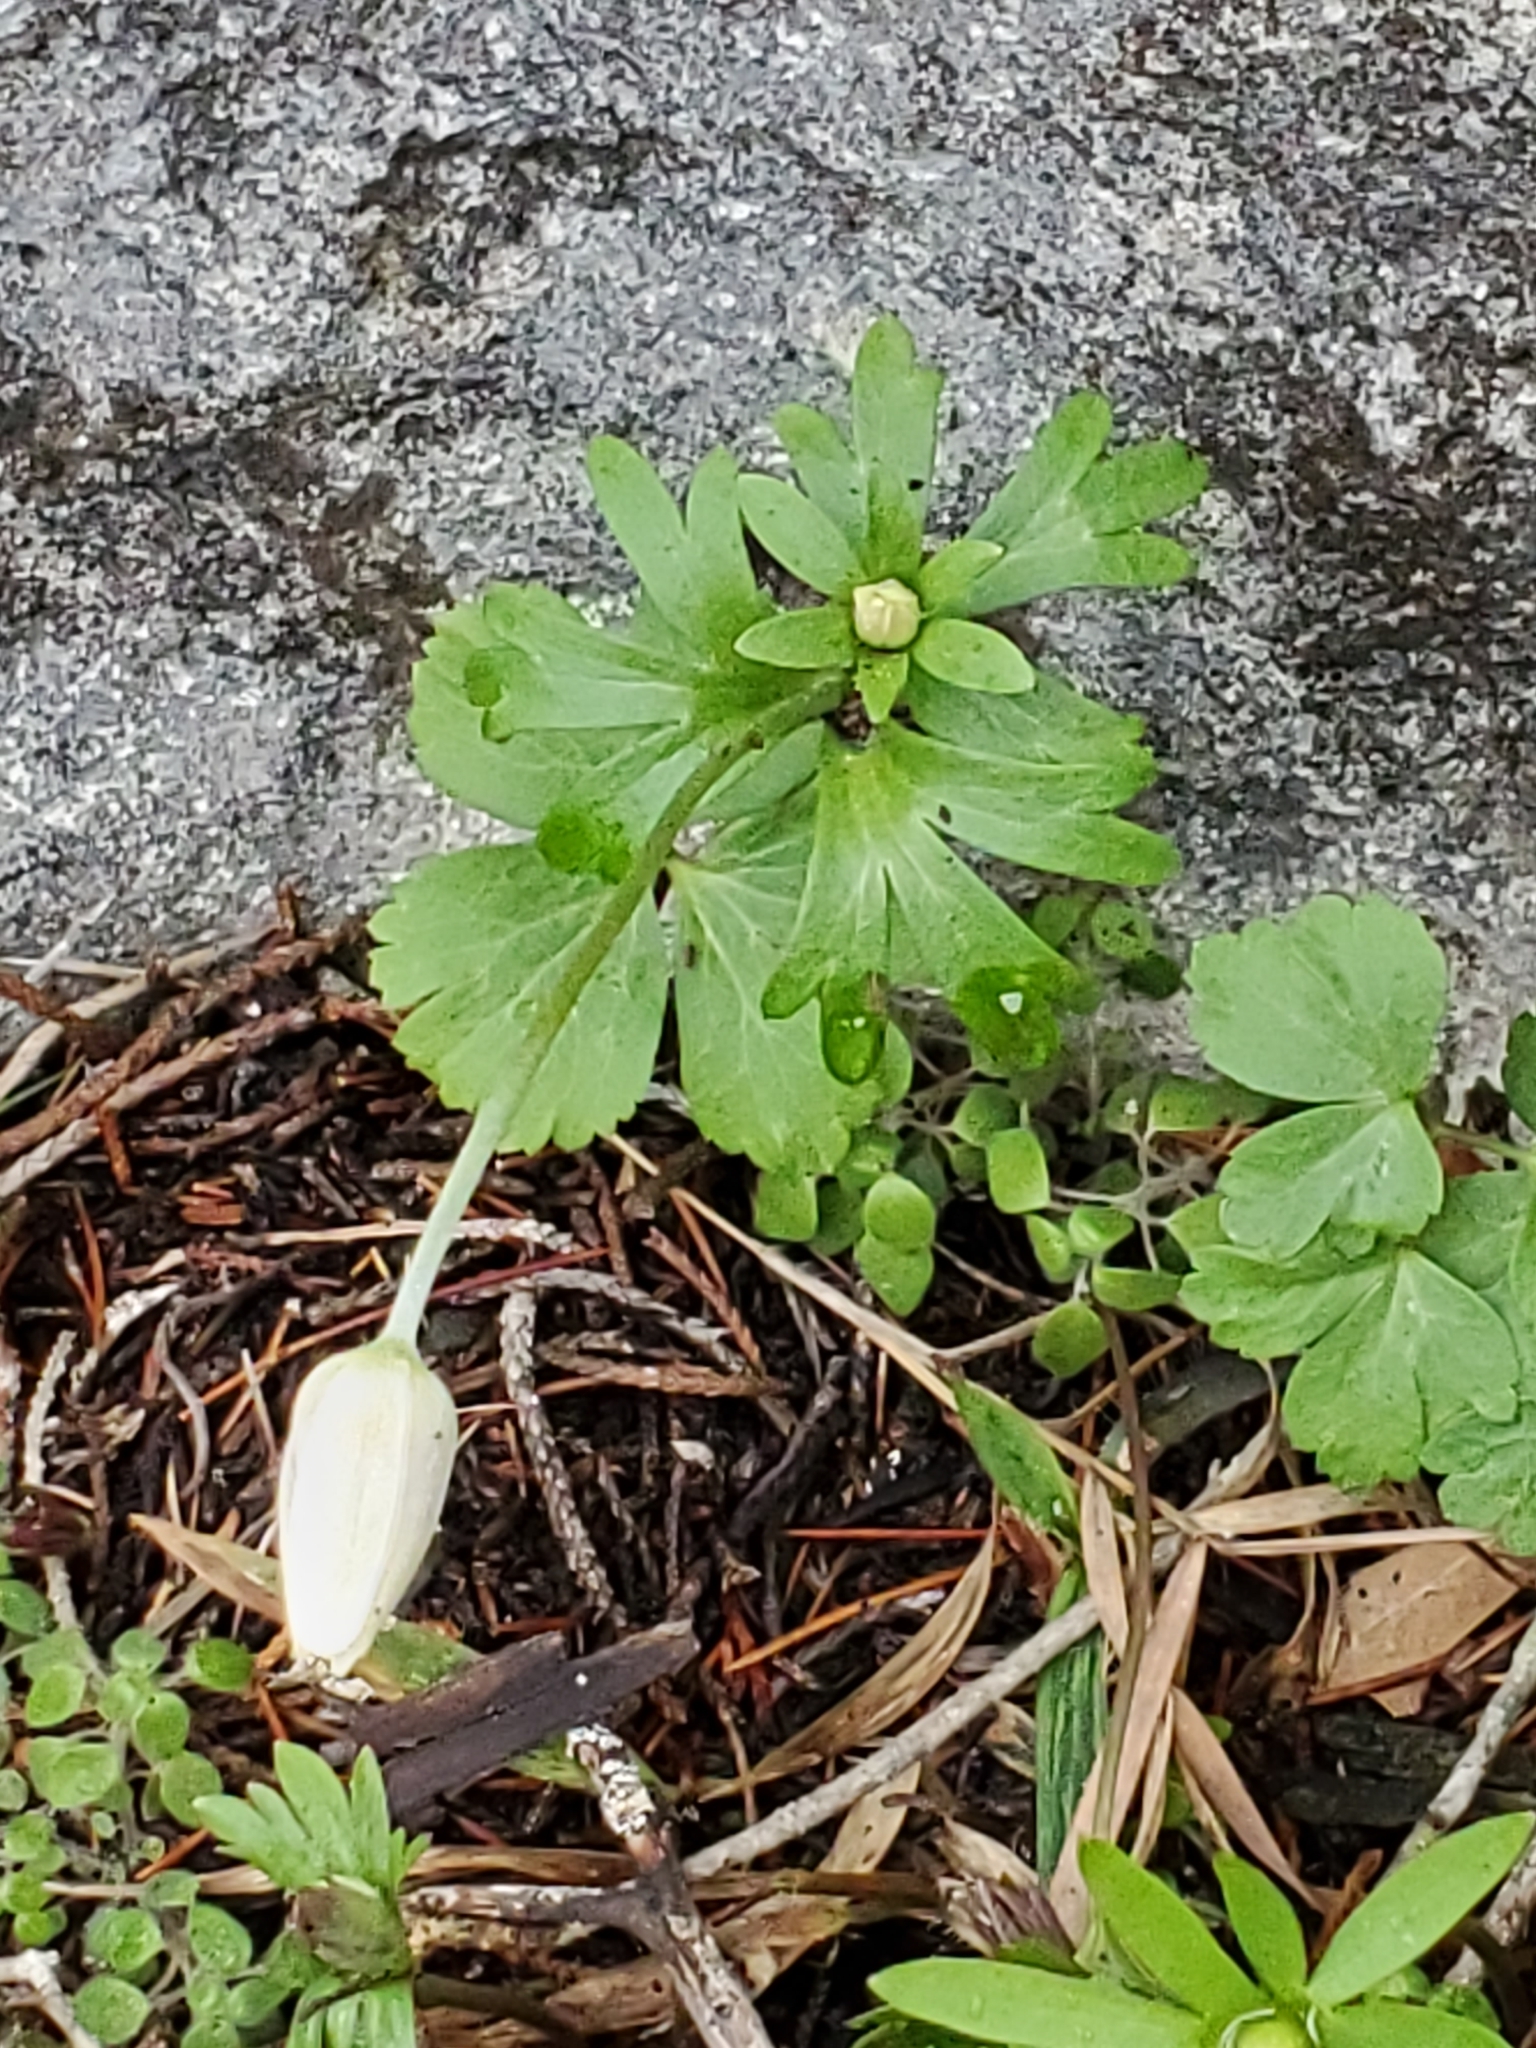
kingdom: Plantae
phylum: Tracheophyta
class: Magnoliopsida
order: Ranunculales
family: Ranunculaceae
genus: Anemone
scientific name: Anemone edwardsiana
